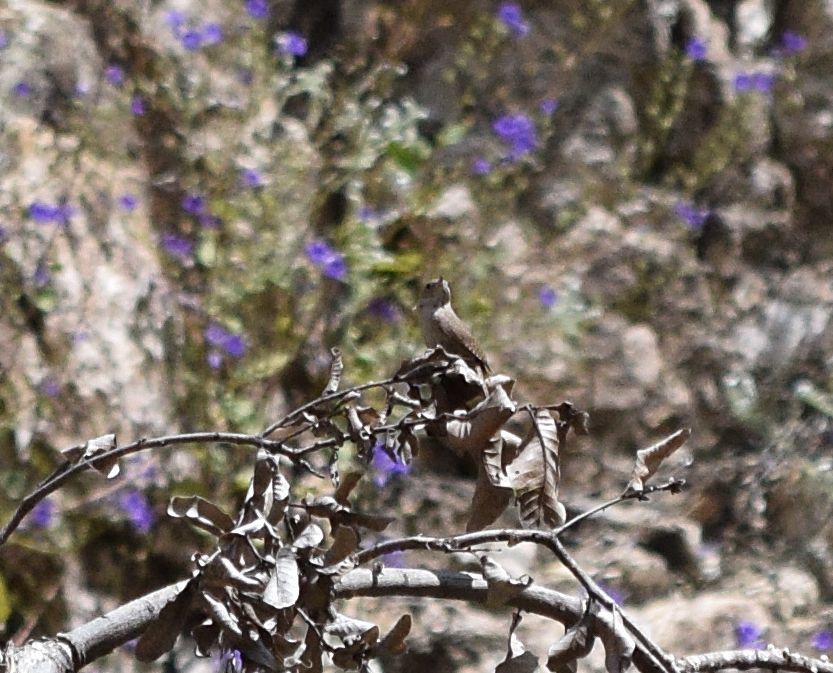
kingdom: Animalia
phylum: Chordata
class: Aves
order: Passeriformes
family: Troglodytidae
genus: Troglodytes
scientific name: Troglodytes aedon
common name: House wren
